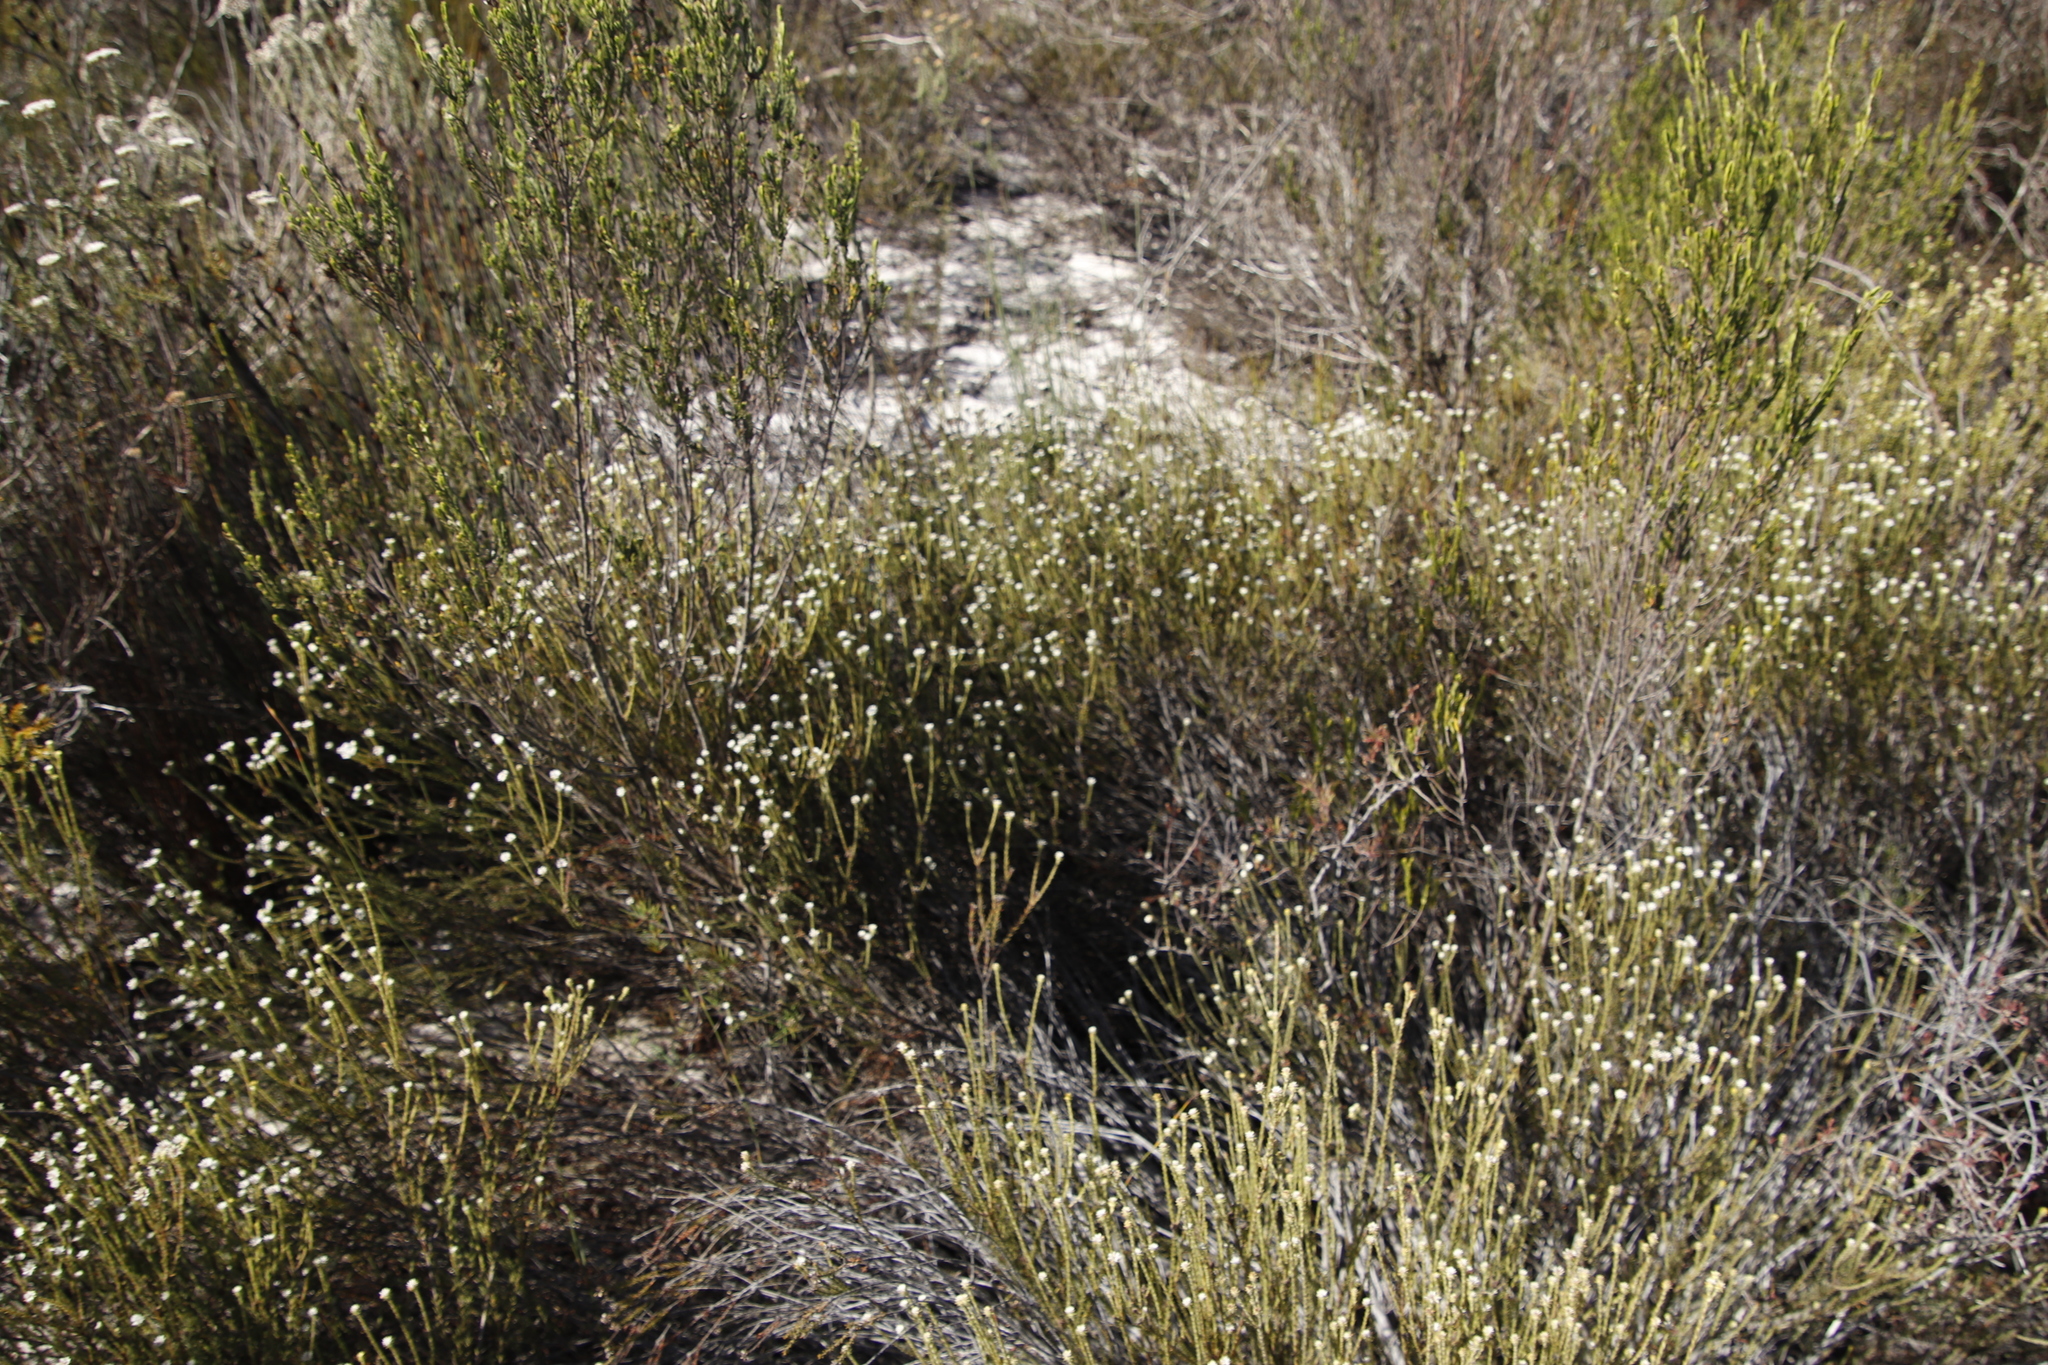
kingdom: Plantae
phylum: Tracheophyta
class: Magnoliopsida
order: Asterales
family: Asteraceae
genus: Metalasia
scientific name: Metalasia densa
